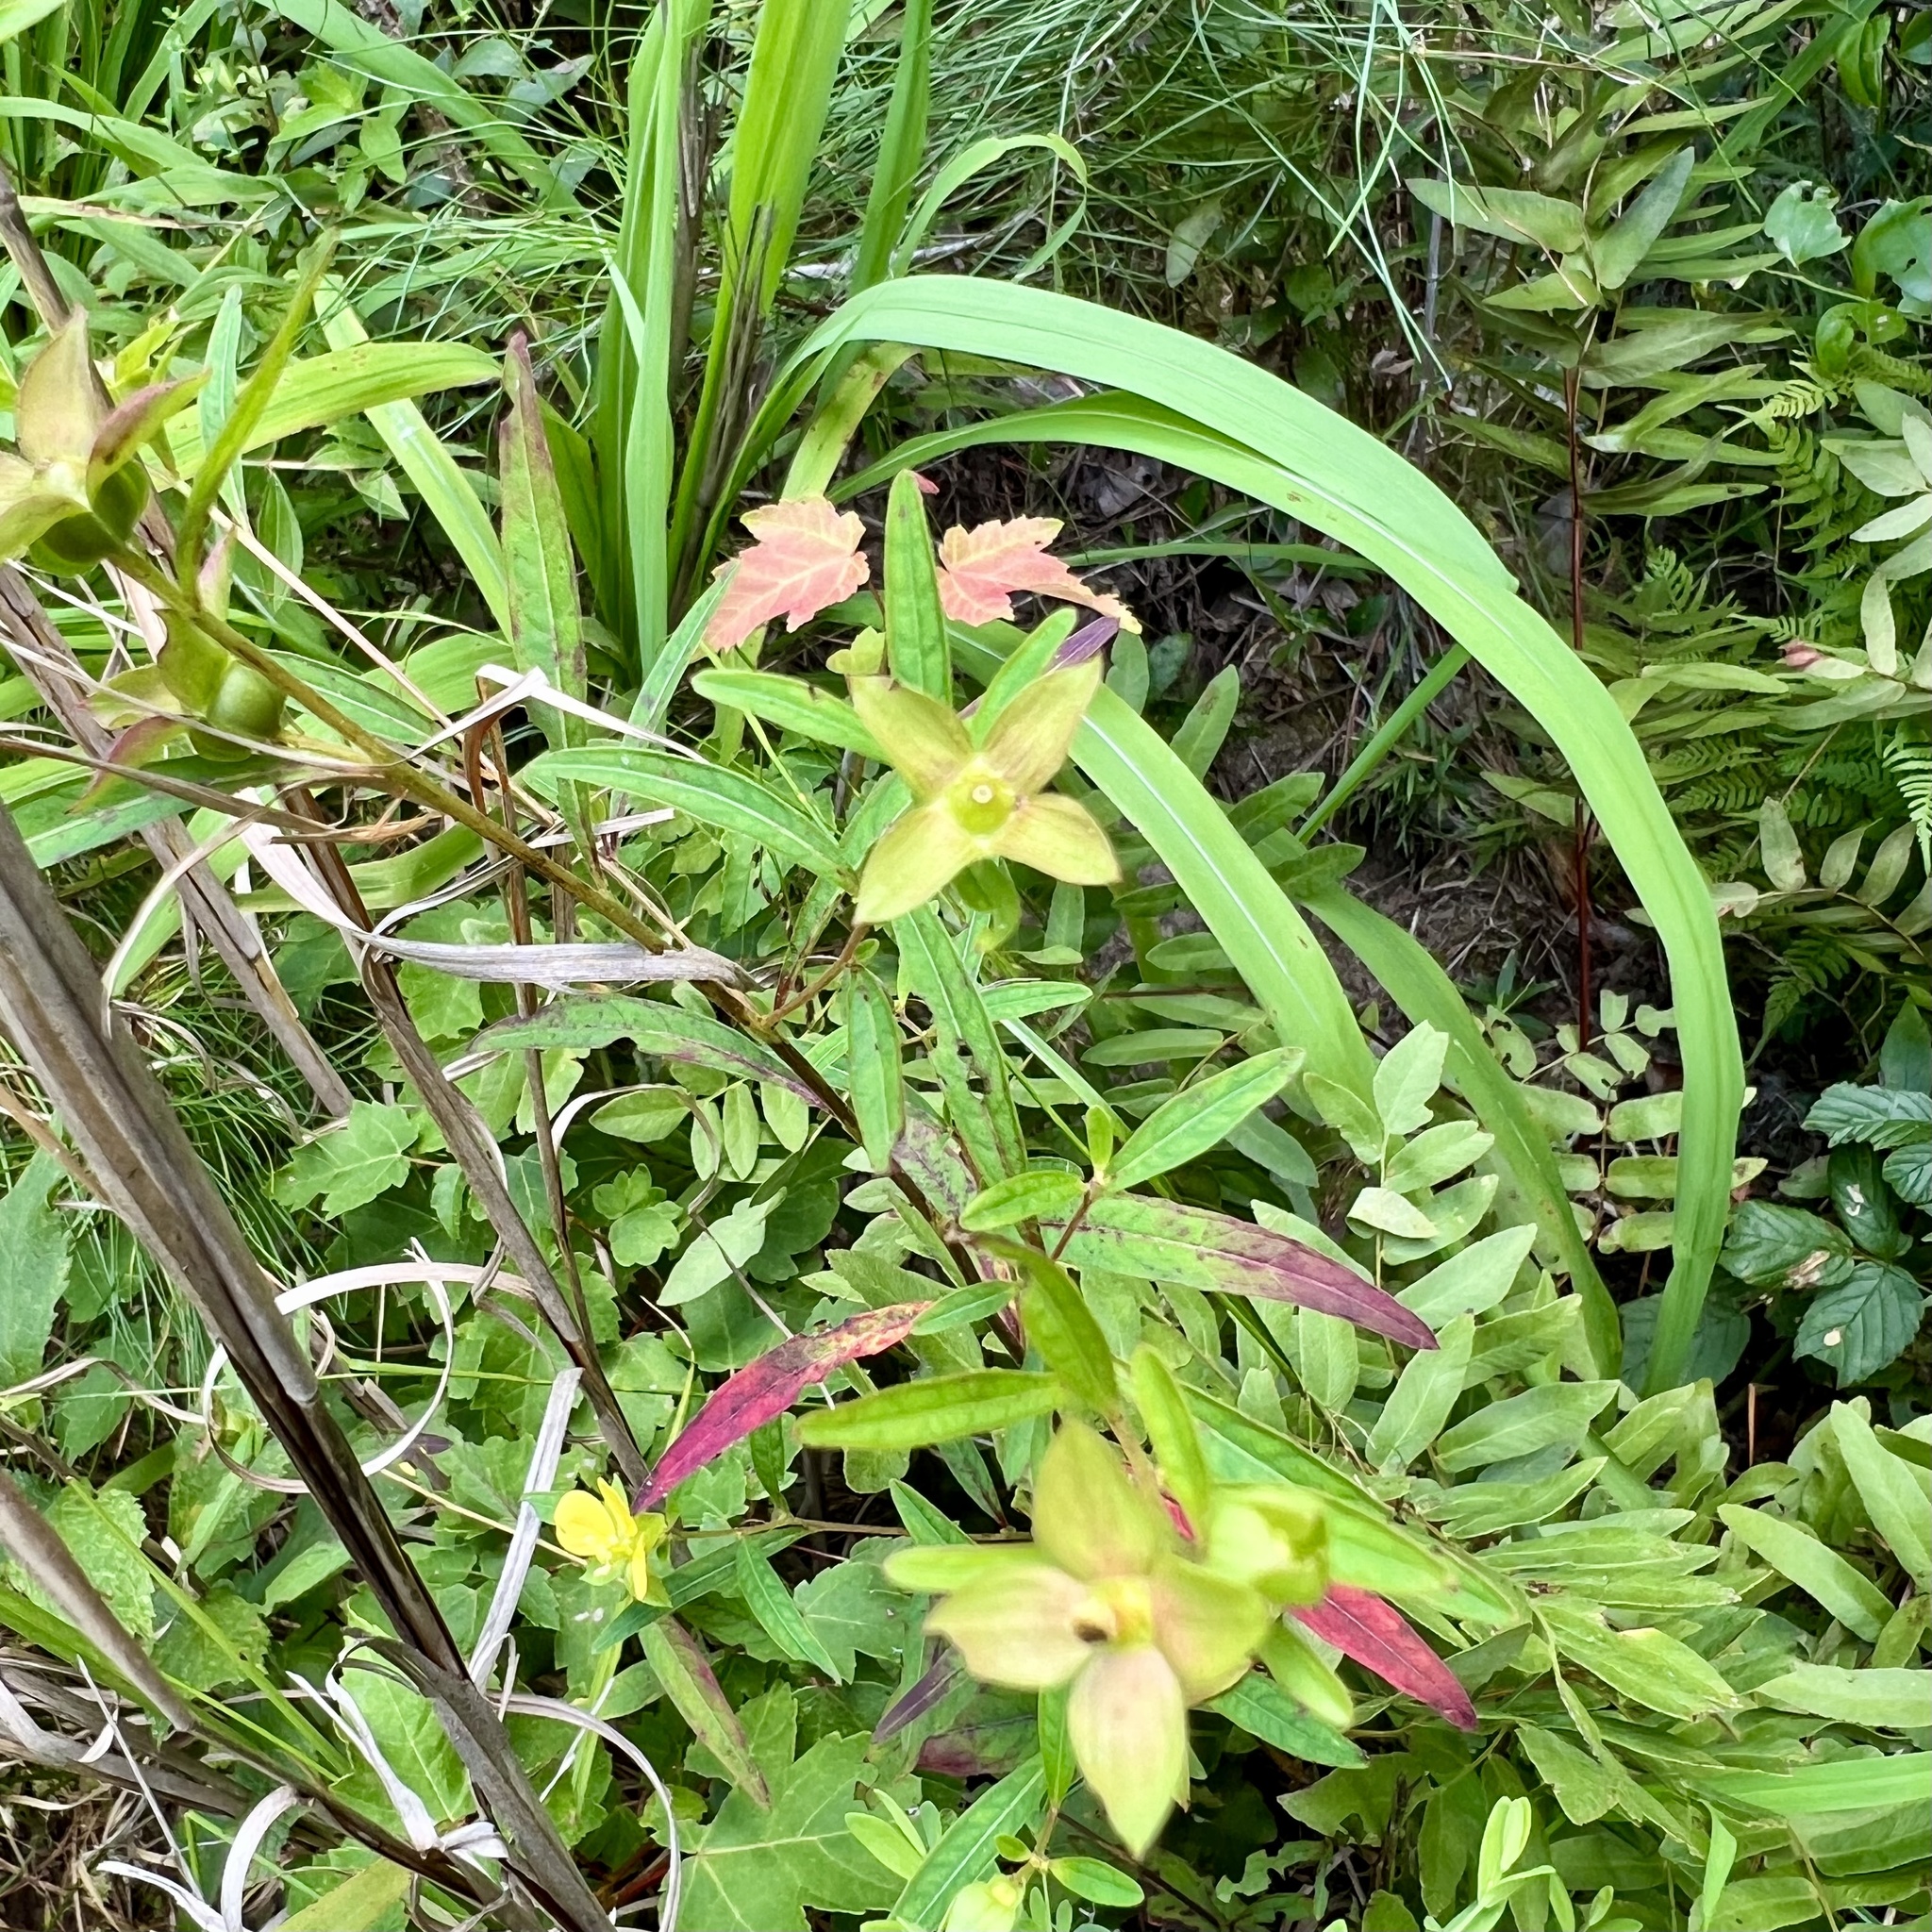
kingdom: Plantae
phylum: Tracheophyta
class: Magnoliopsida
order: Myrtales
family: Onagraceae
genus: Ludwigia
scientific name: Ludwigia alternifolia
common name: Rattlebox
